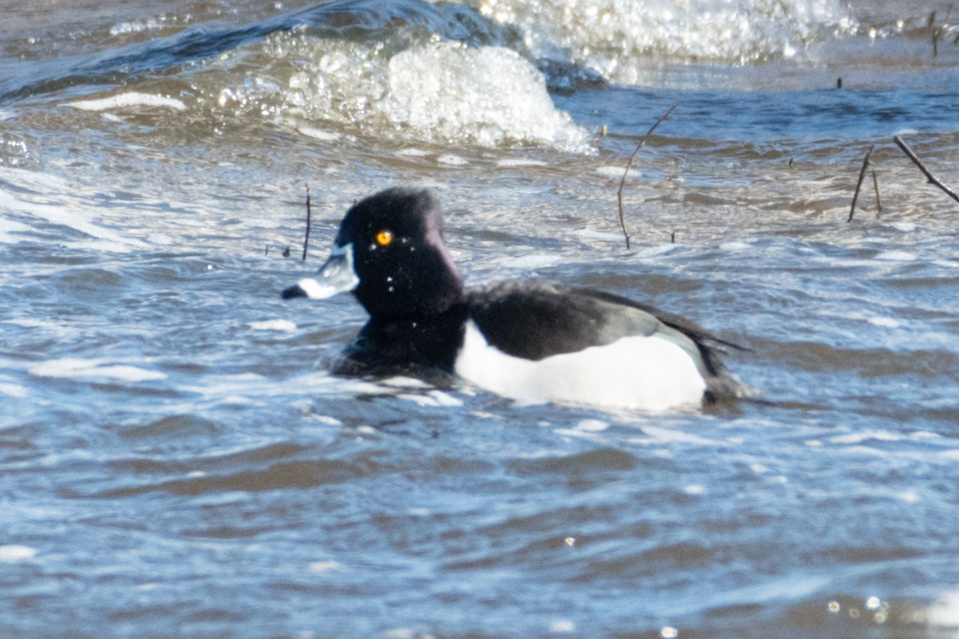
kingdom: Animalia
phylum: Chordata
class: Aves
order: Anseriformes
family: Anatidae
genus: Aythya
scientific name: Aythya collaris
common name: Ring-necked duck
